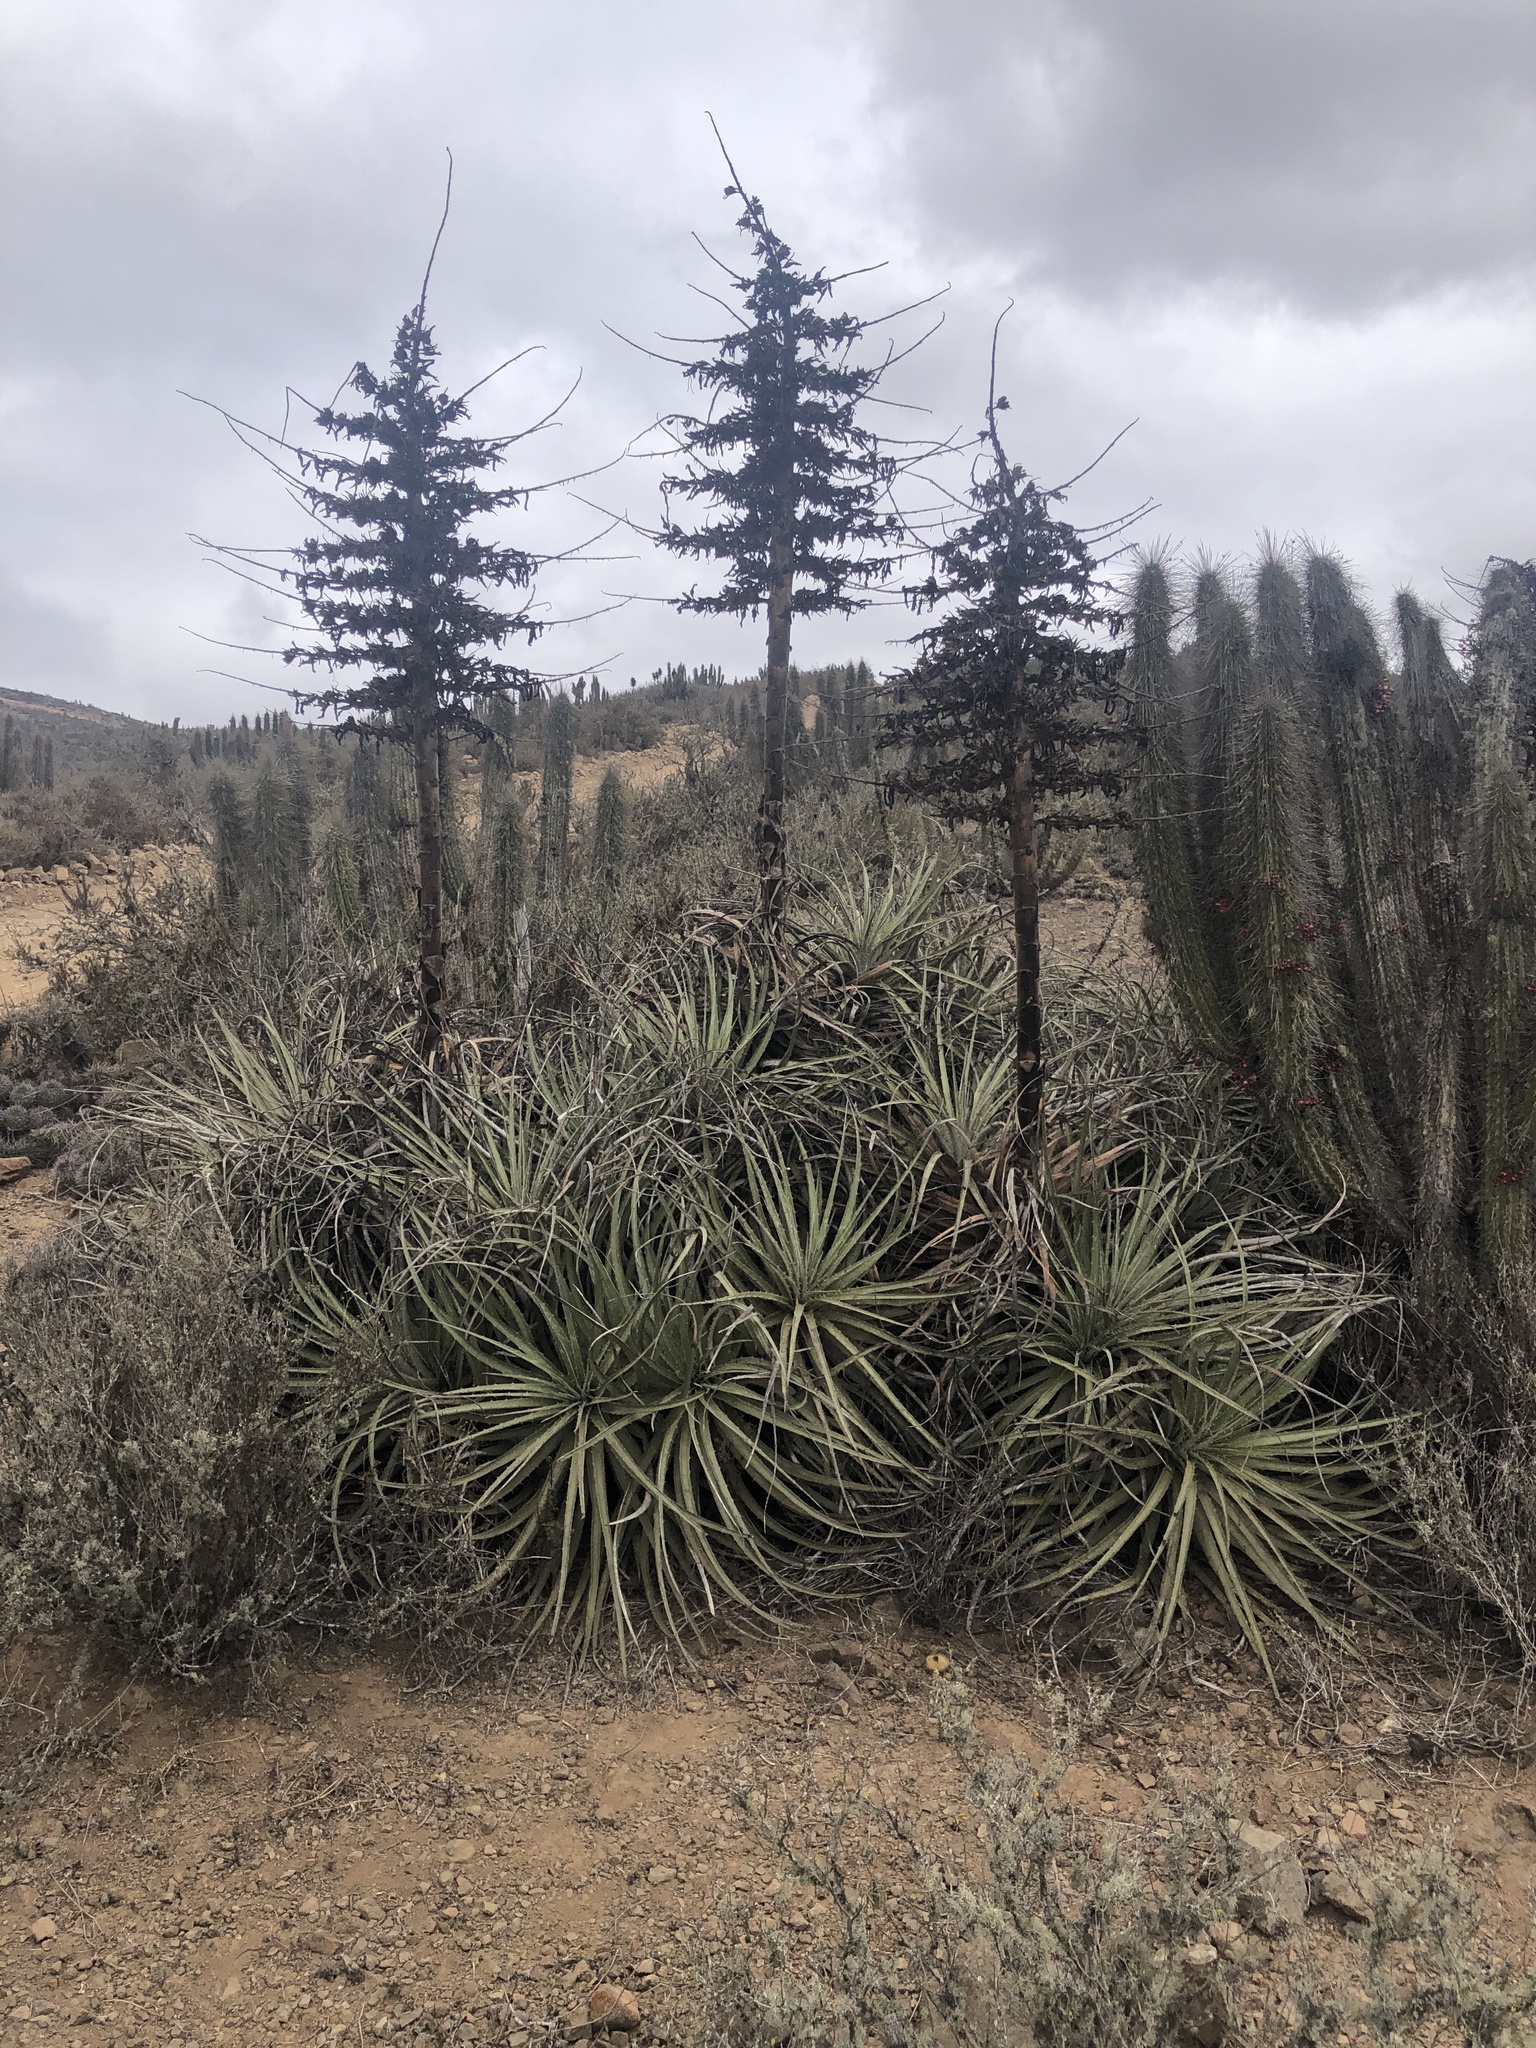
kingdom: Plantae
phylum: Tracheophyta
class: Liliopsida
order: Poales
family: Bromeliaceae
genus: Puya
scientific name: Puya chilensis
